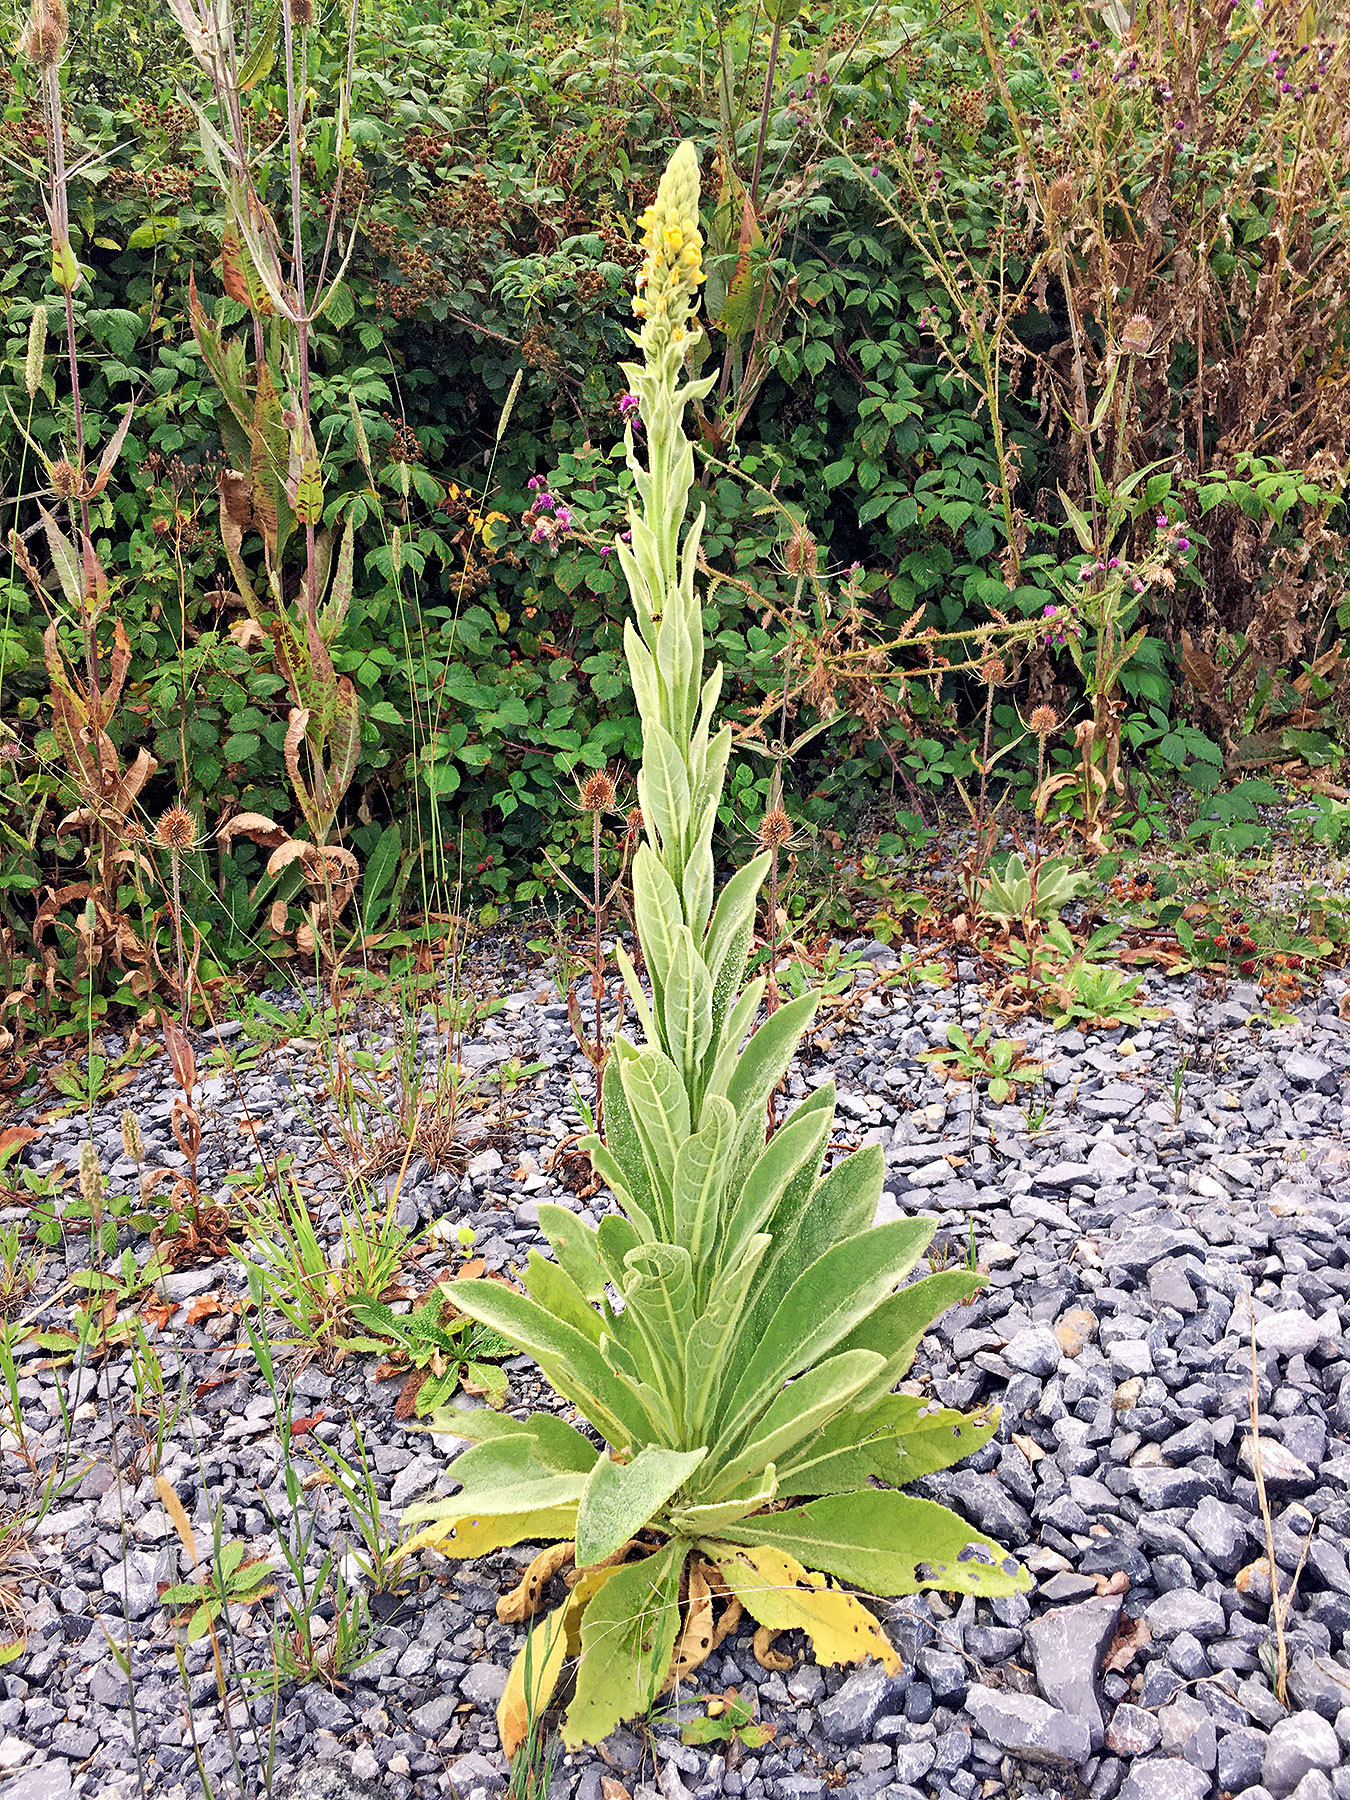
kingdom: Plantae
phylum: Tracheophyta
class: Magnoliopsida
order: Lamiales
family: Scrophulariaceae
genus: Verbascum
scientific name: Verbascum thapsus
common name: Common mullein
